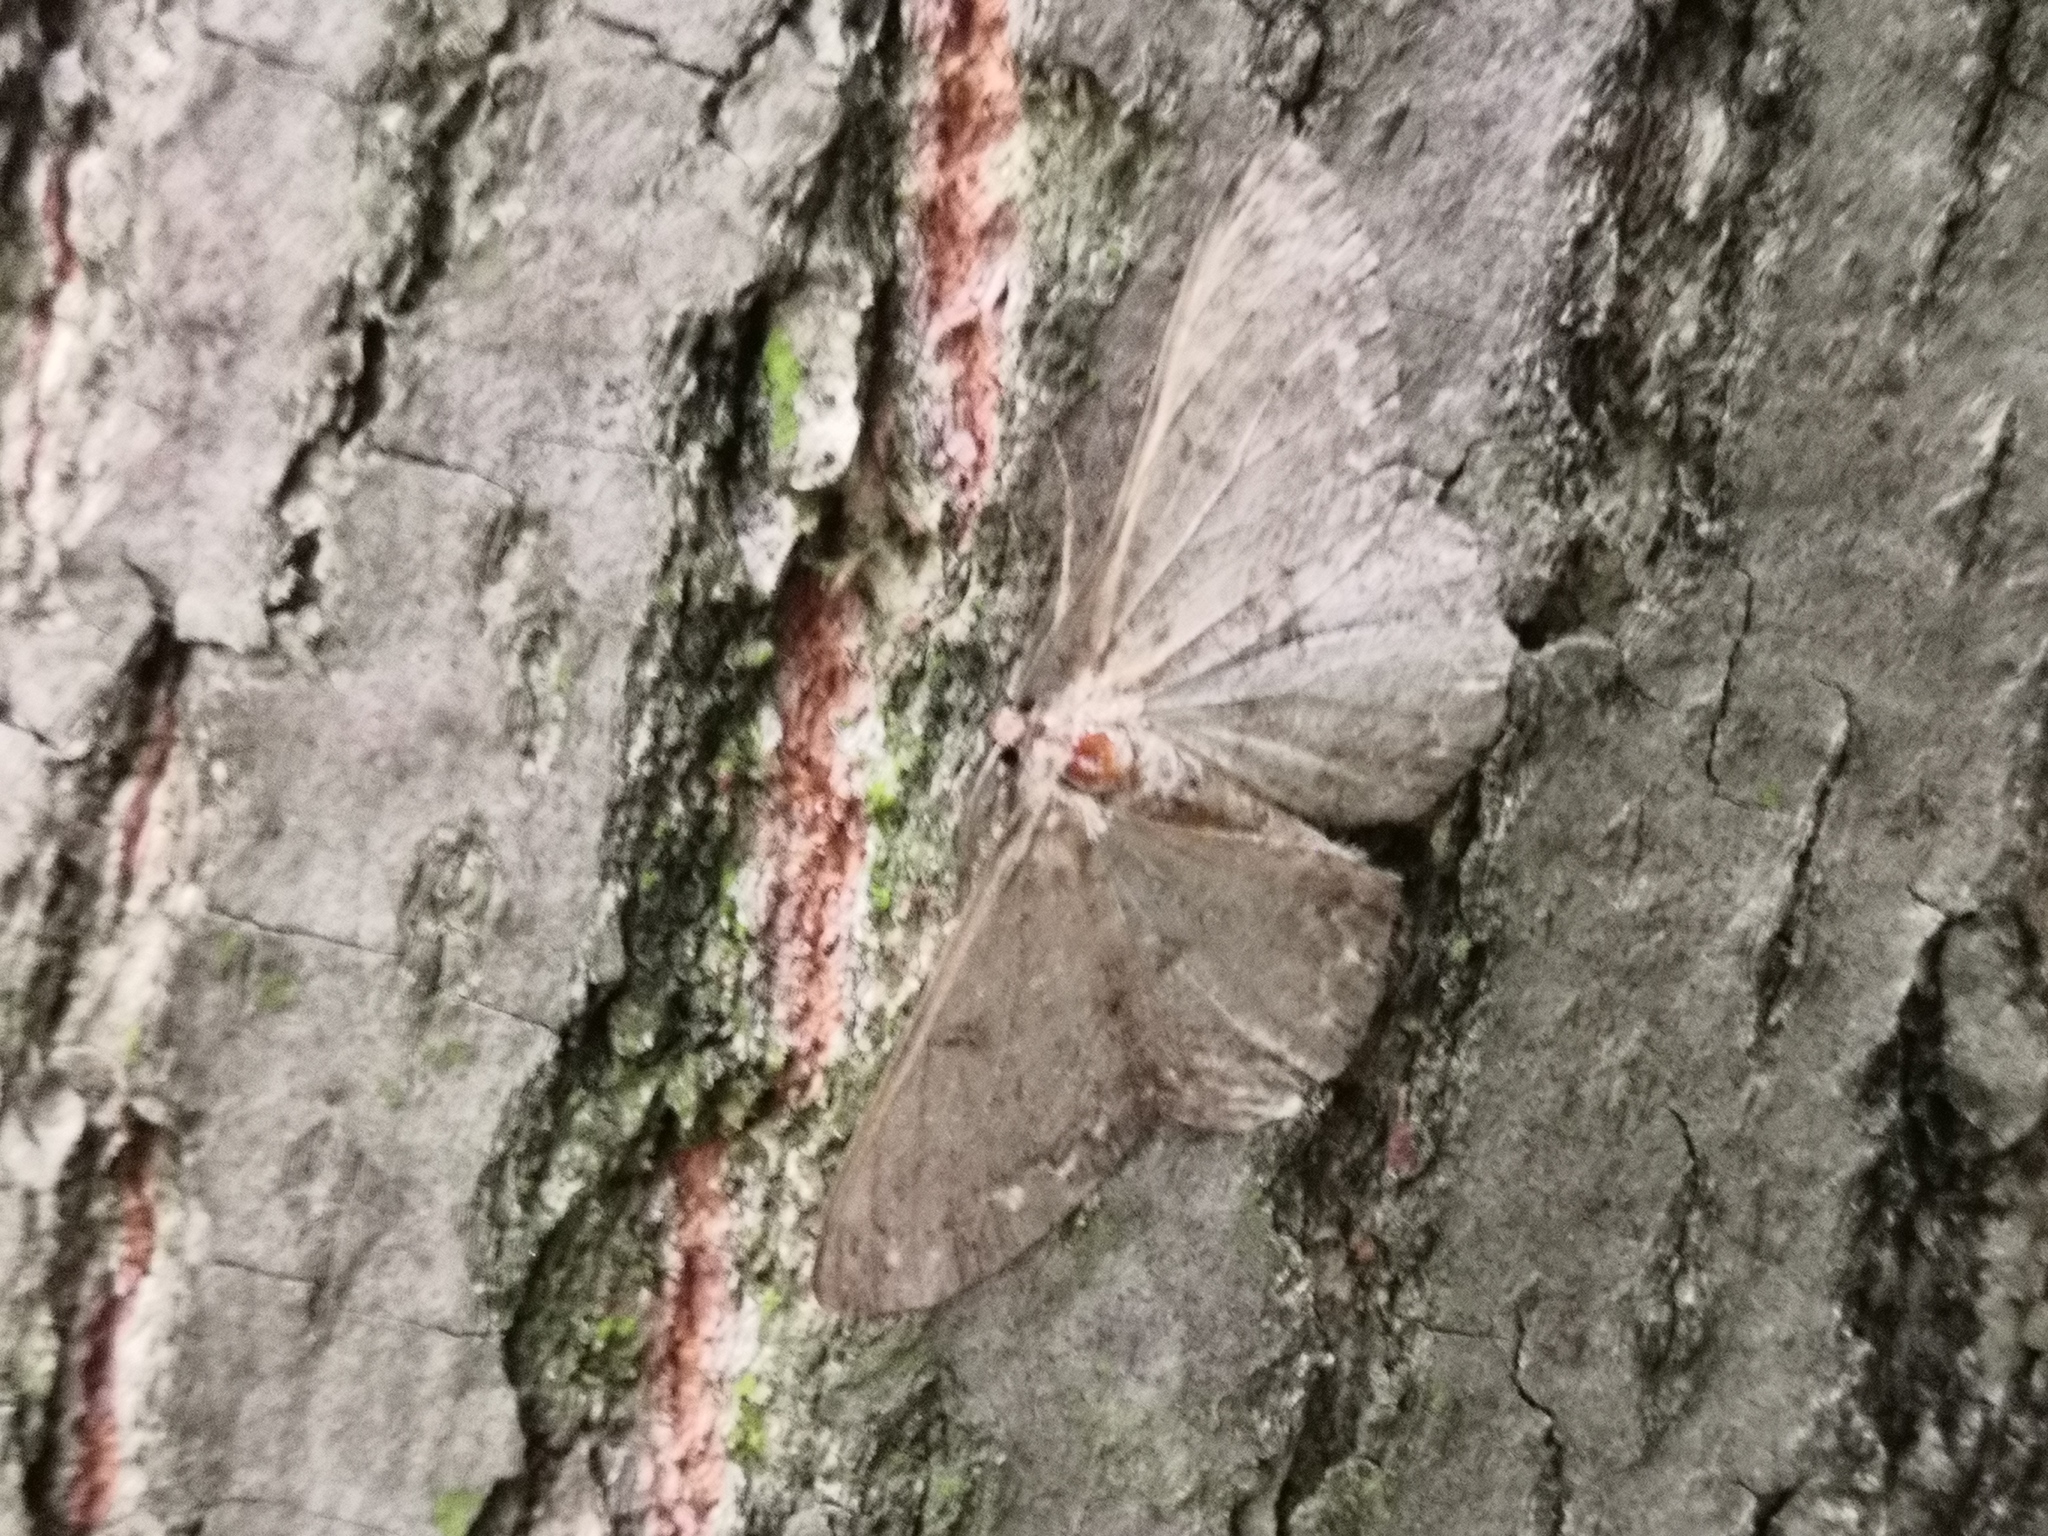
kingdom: Animalia
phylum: Arthropoda
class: Insecta
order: Lepidoptera
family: Geometridae
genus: Hypomecis
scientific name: Hypomecis punctinalis
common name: Pale oak beauty
